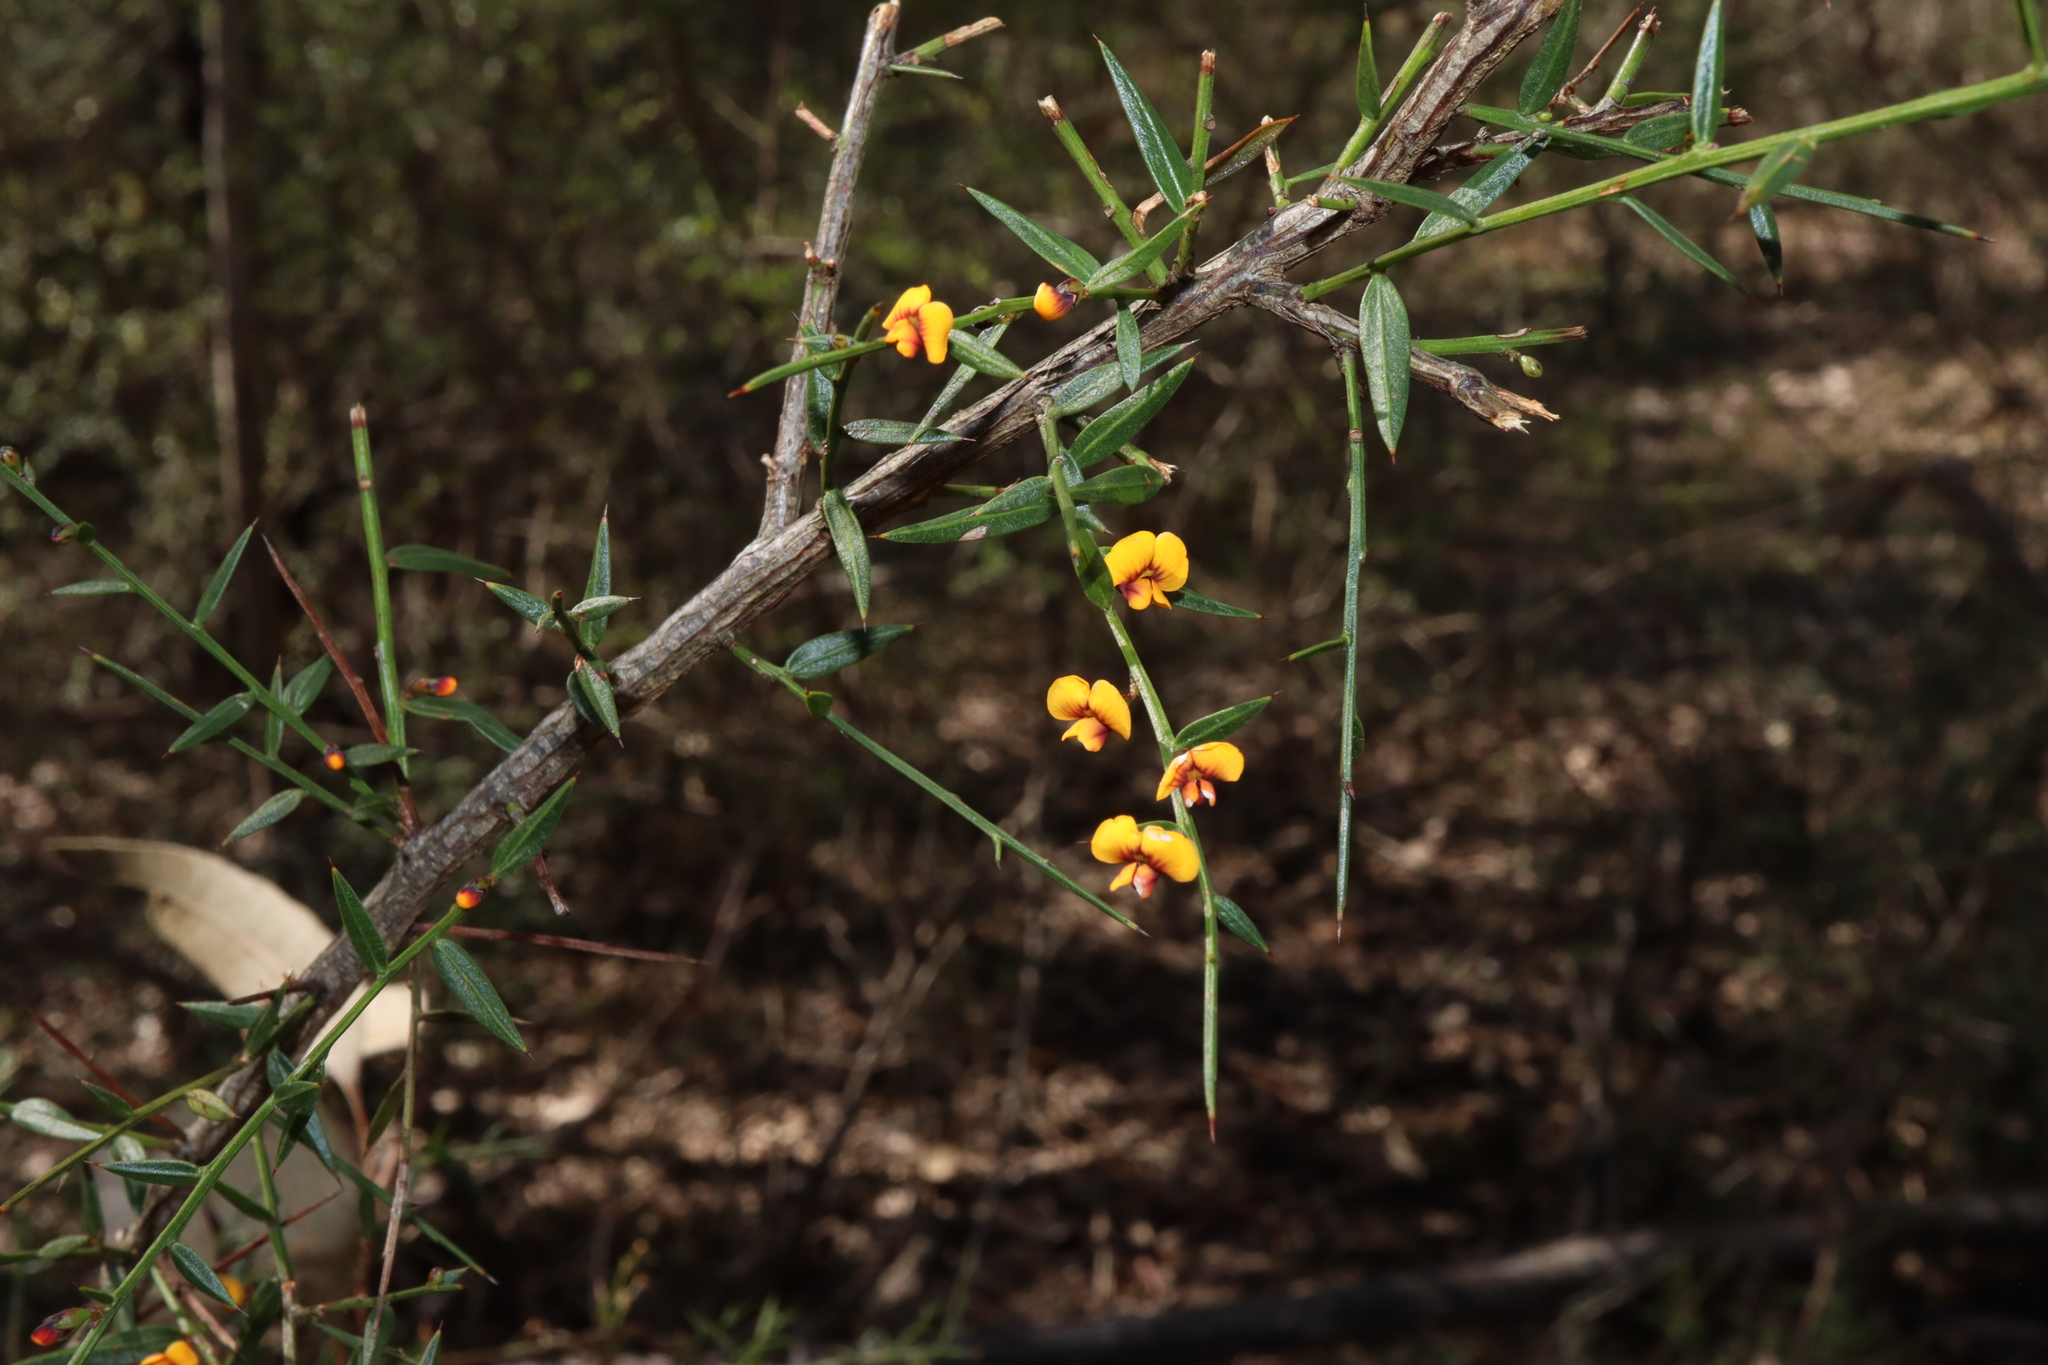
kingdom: Plantae
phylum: Tracheophyta
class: Magnoliopsida
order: Fabales
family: Fabaceae
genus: Daviesia
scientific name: Daviesia ulicifolia
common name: Gorse bitter-pea
